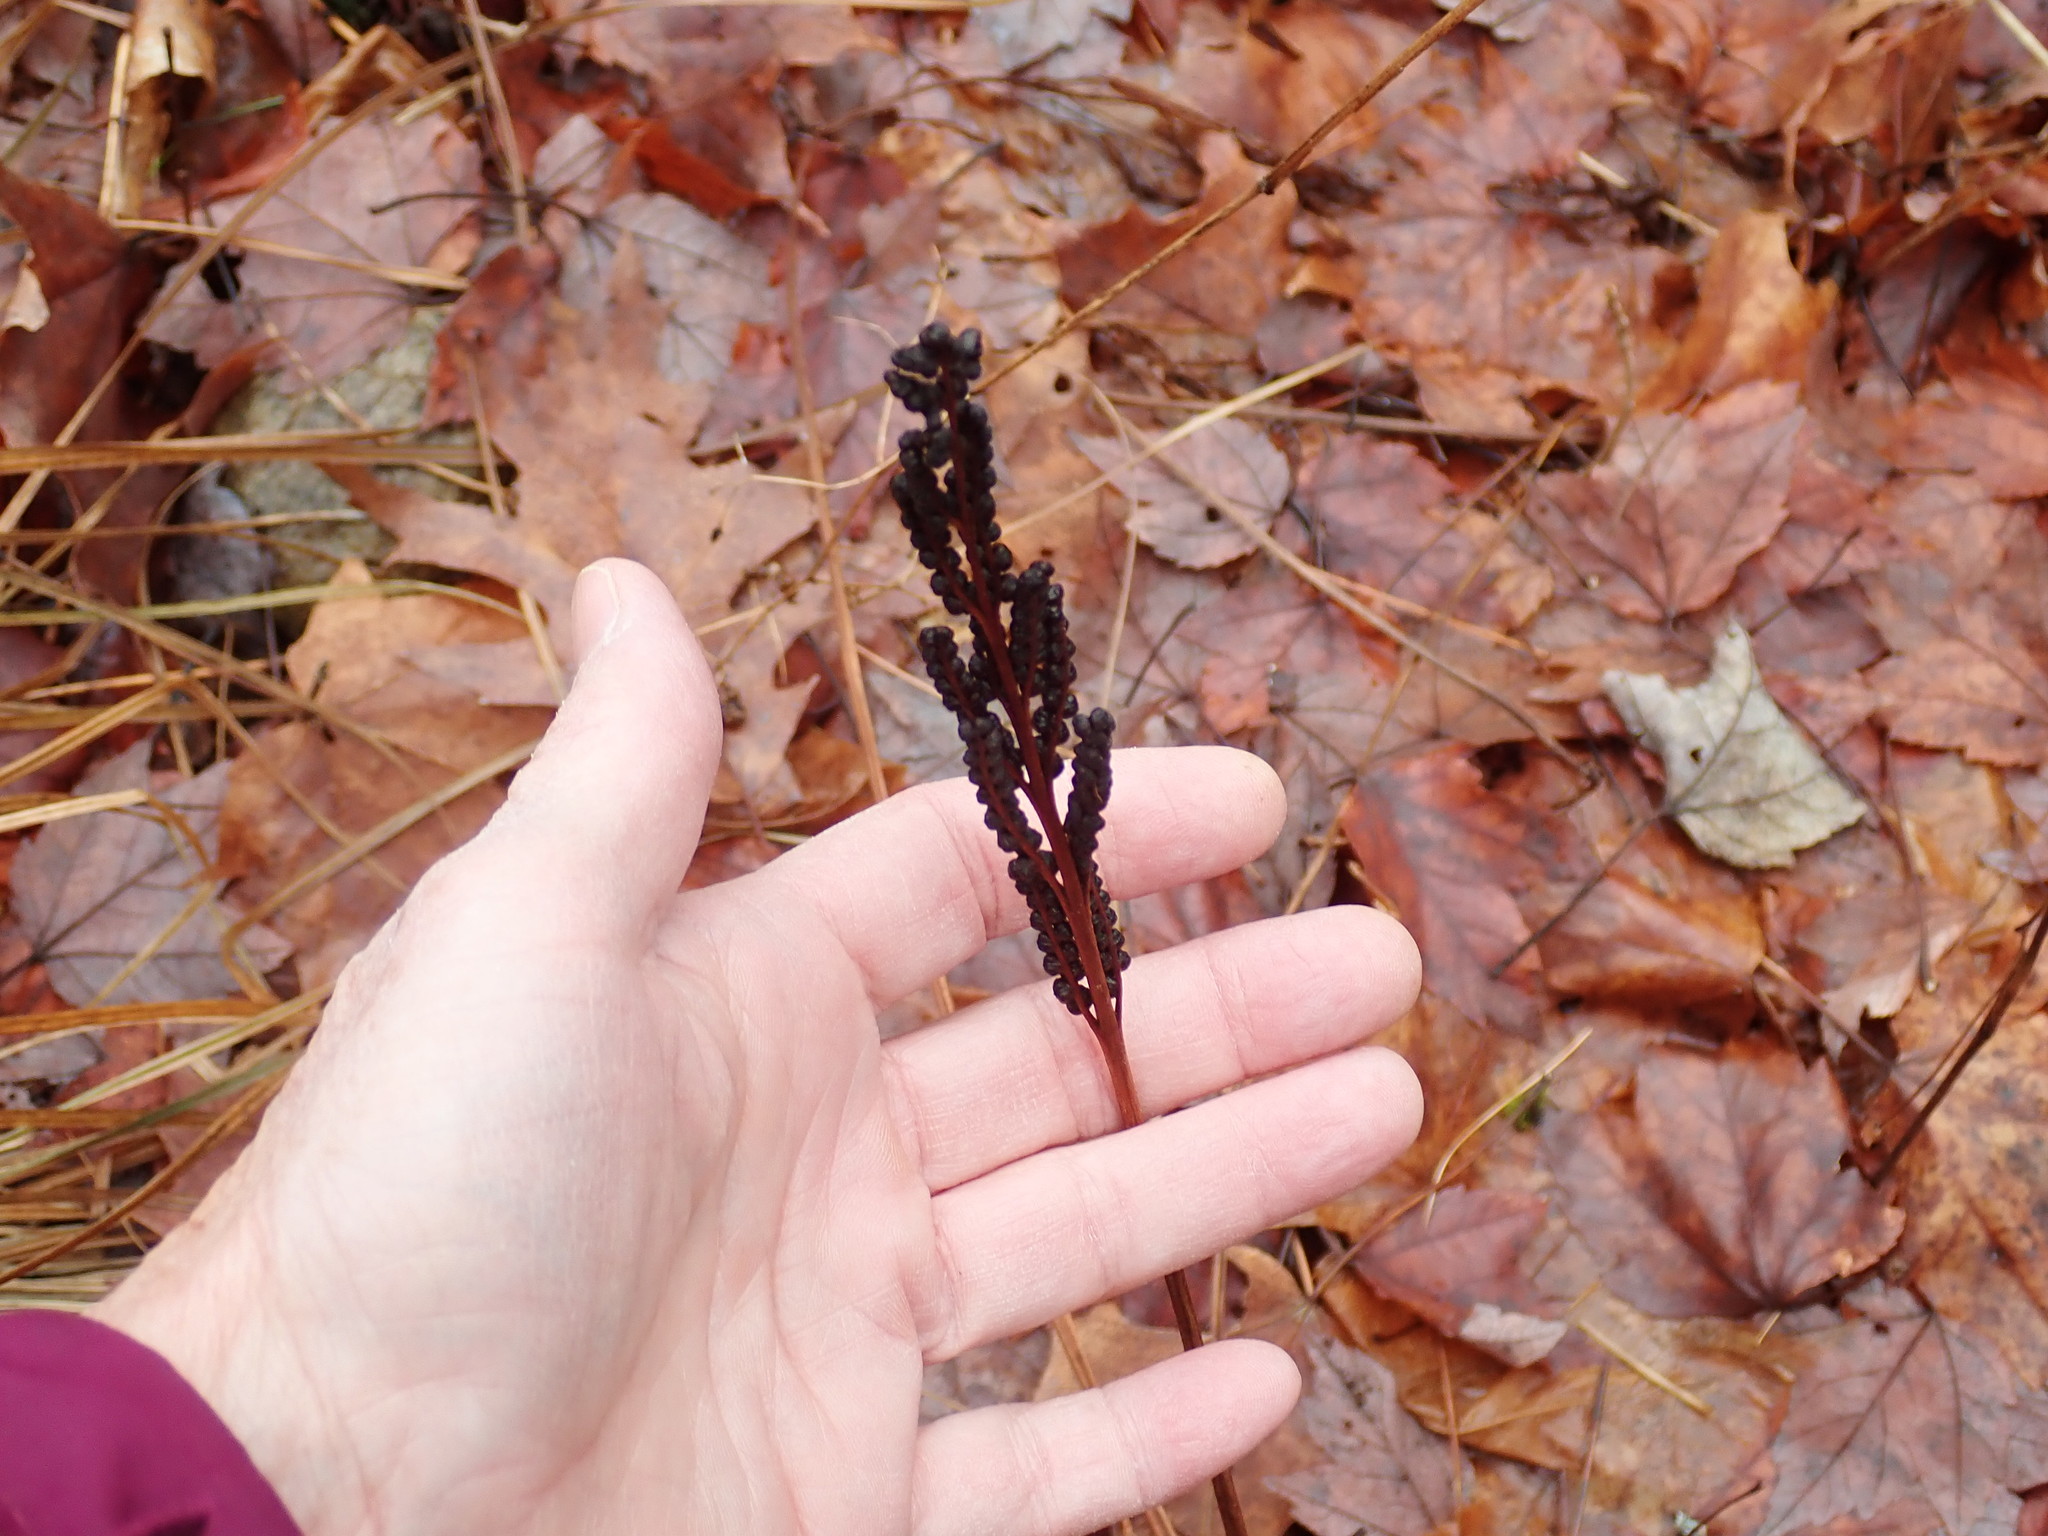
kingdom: Plantae
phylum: Tracheophyta
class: Polypodiopsida
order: Polypodiales
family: Onocleaceae
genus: Onoclea
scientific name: Onoclea sensibilis
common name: Sensitive fern
